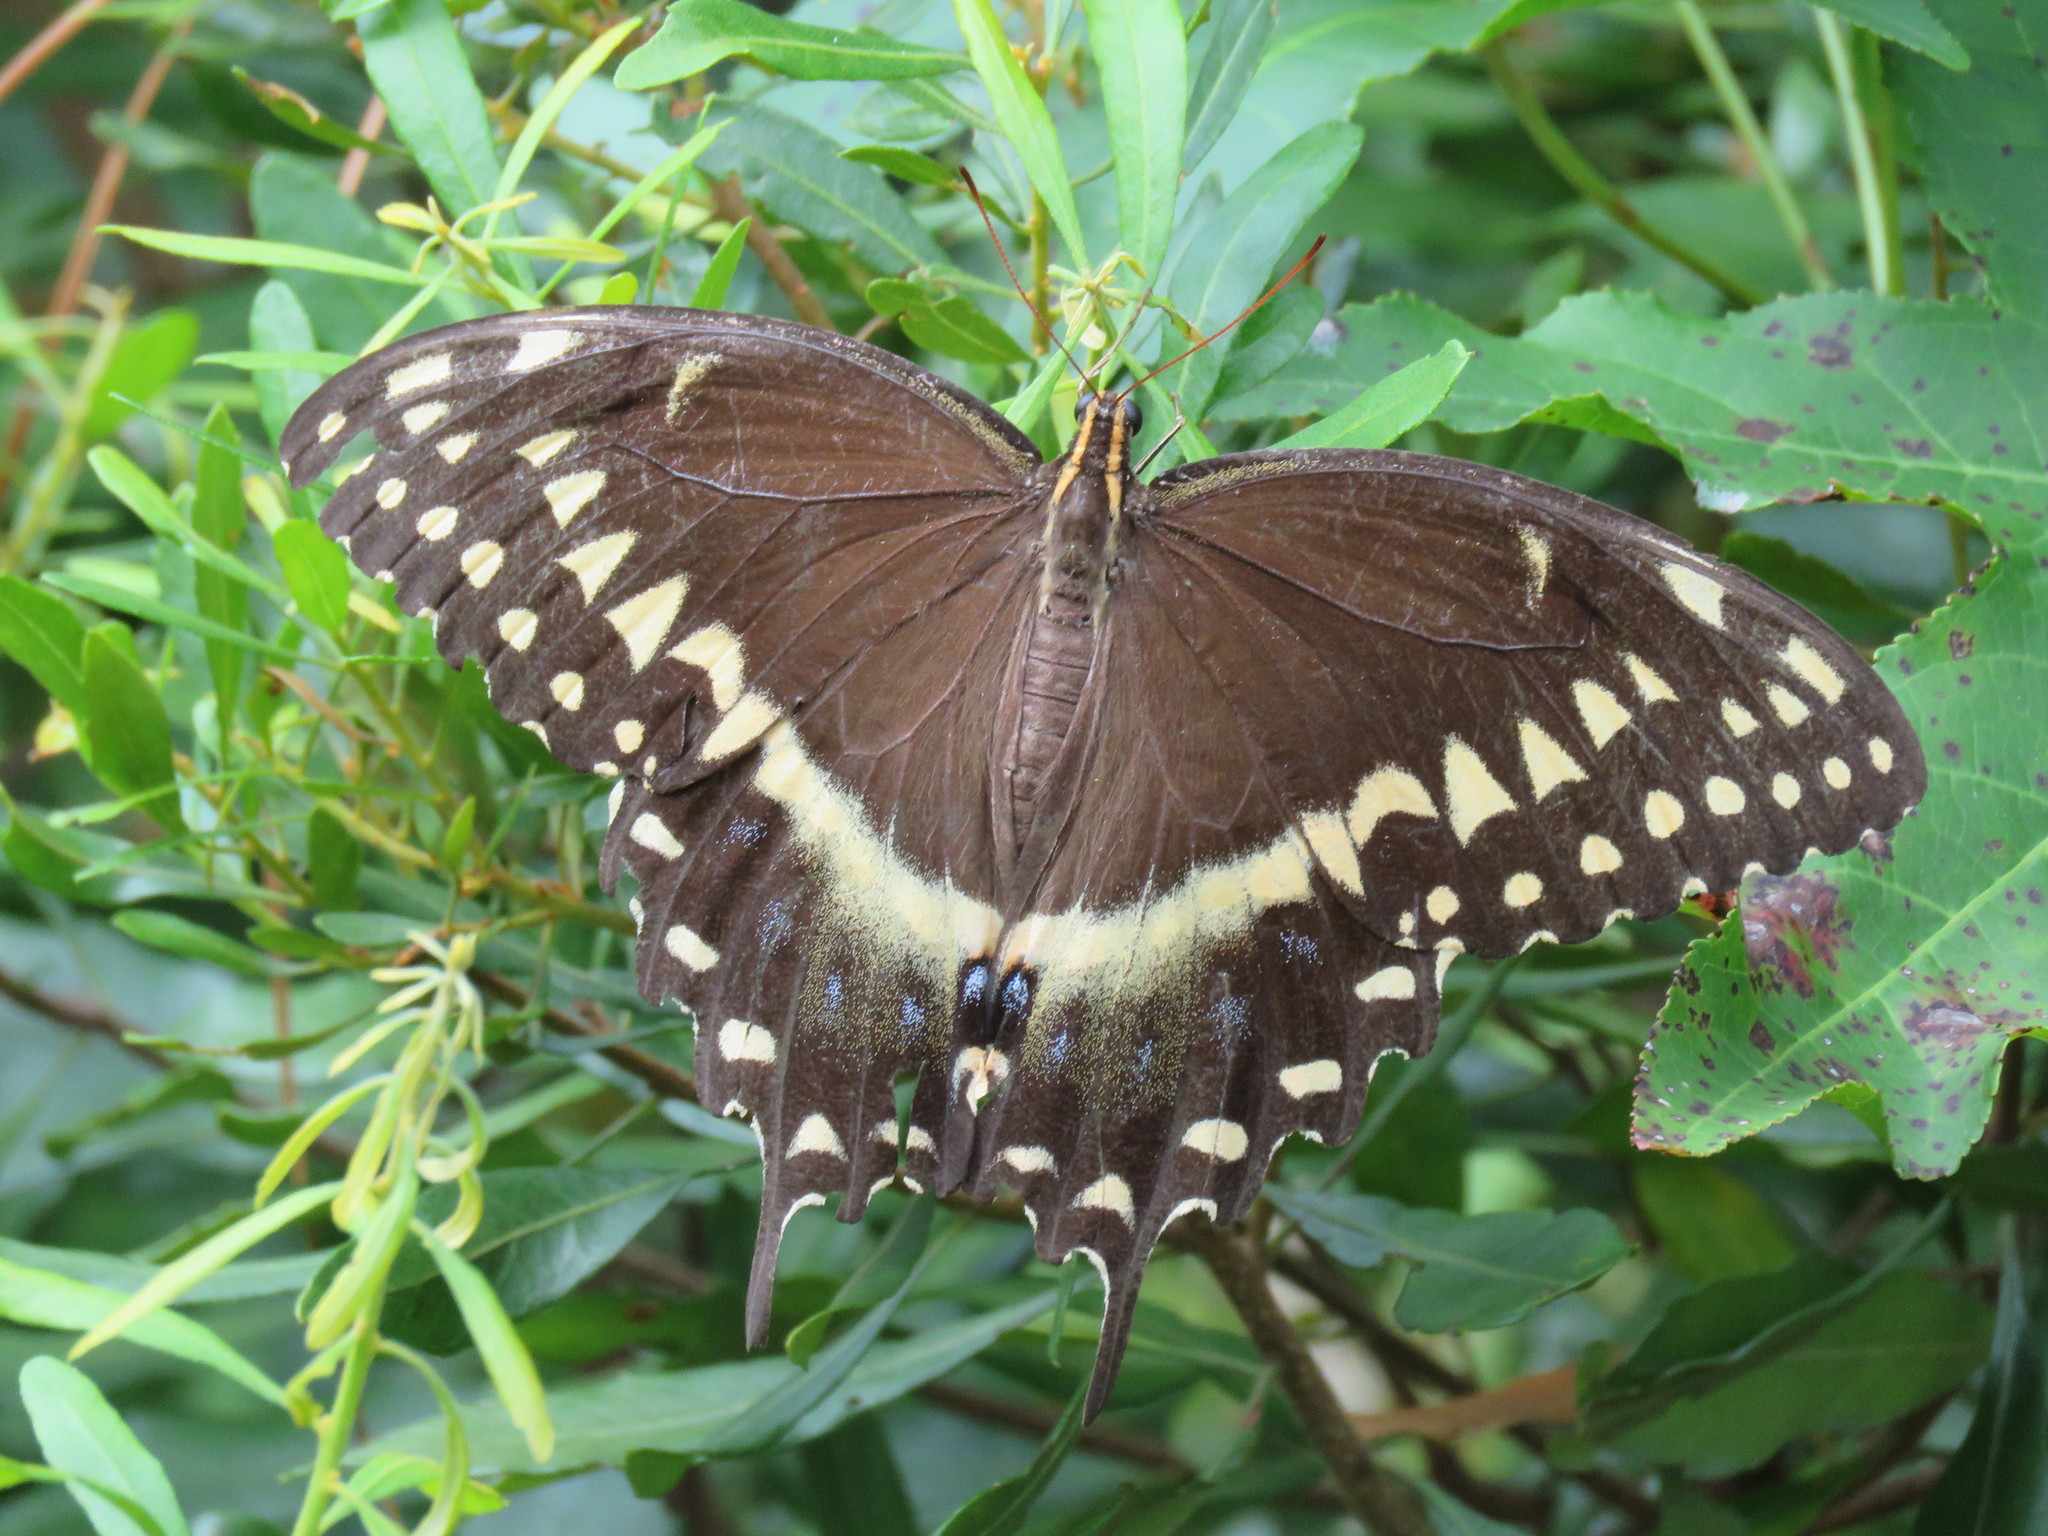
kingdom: Animalia
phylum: Arthropoda
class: Insecta
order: Lepidoptera
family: Papilionidae
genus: Papilio
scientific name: Papilio palamedes
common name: Palamedes swallowtail
